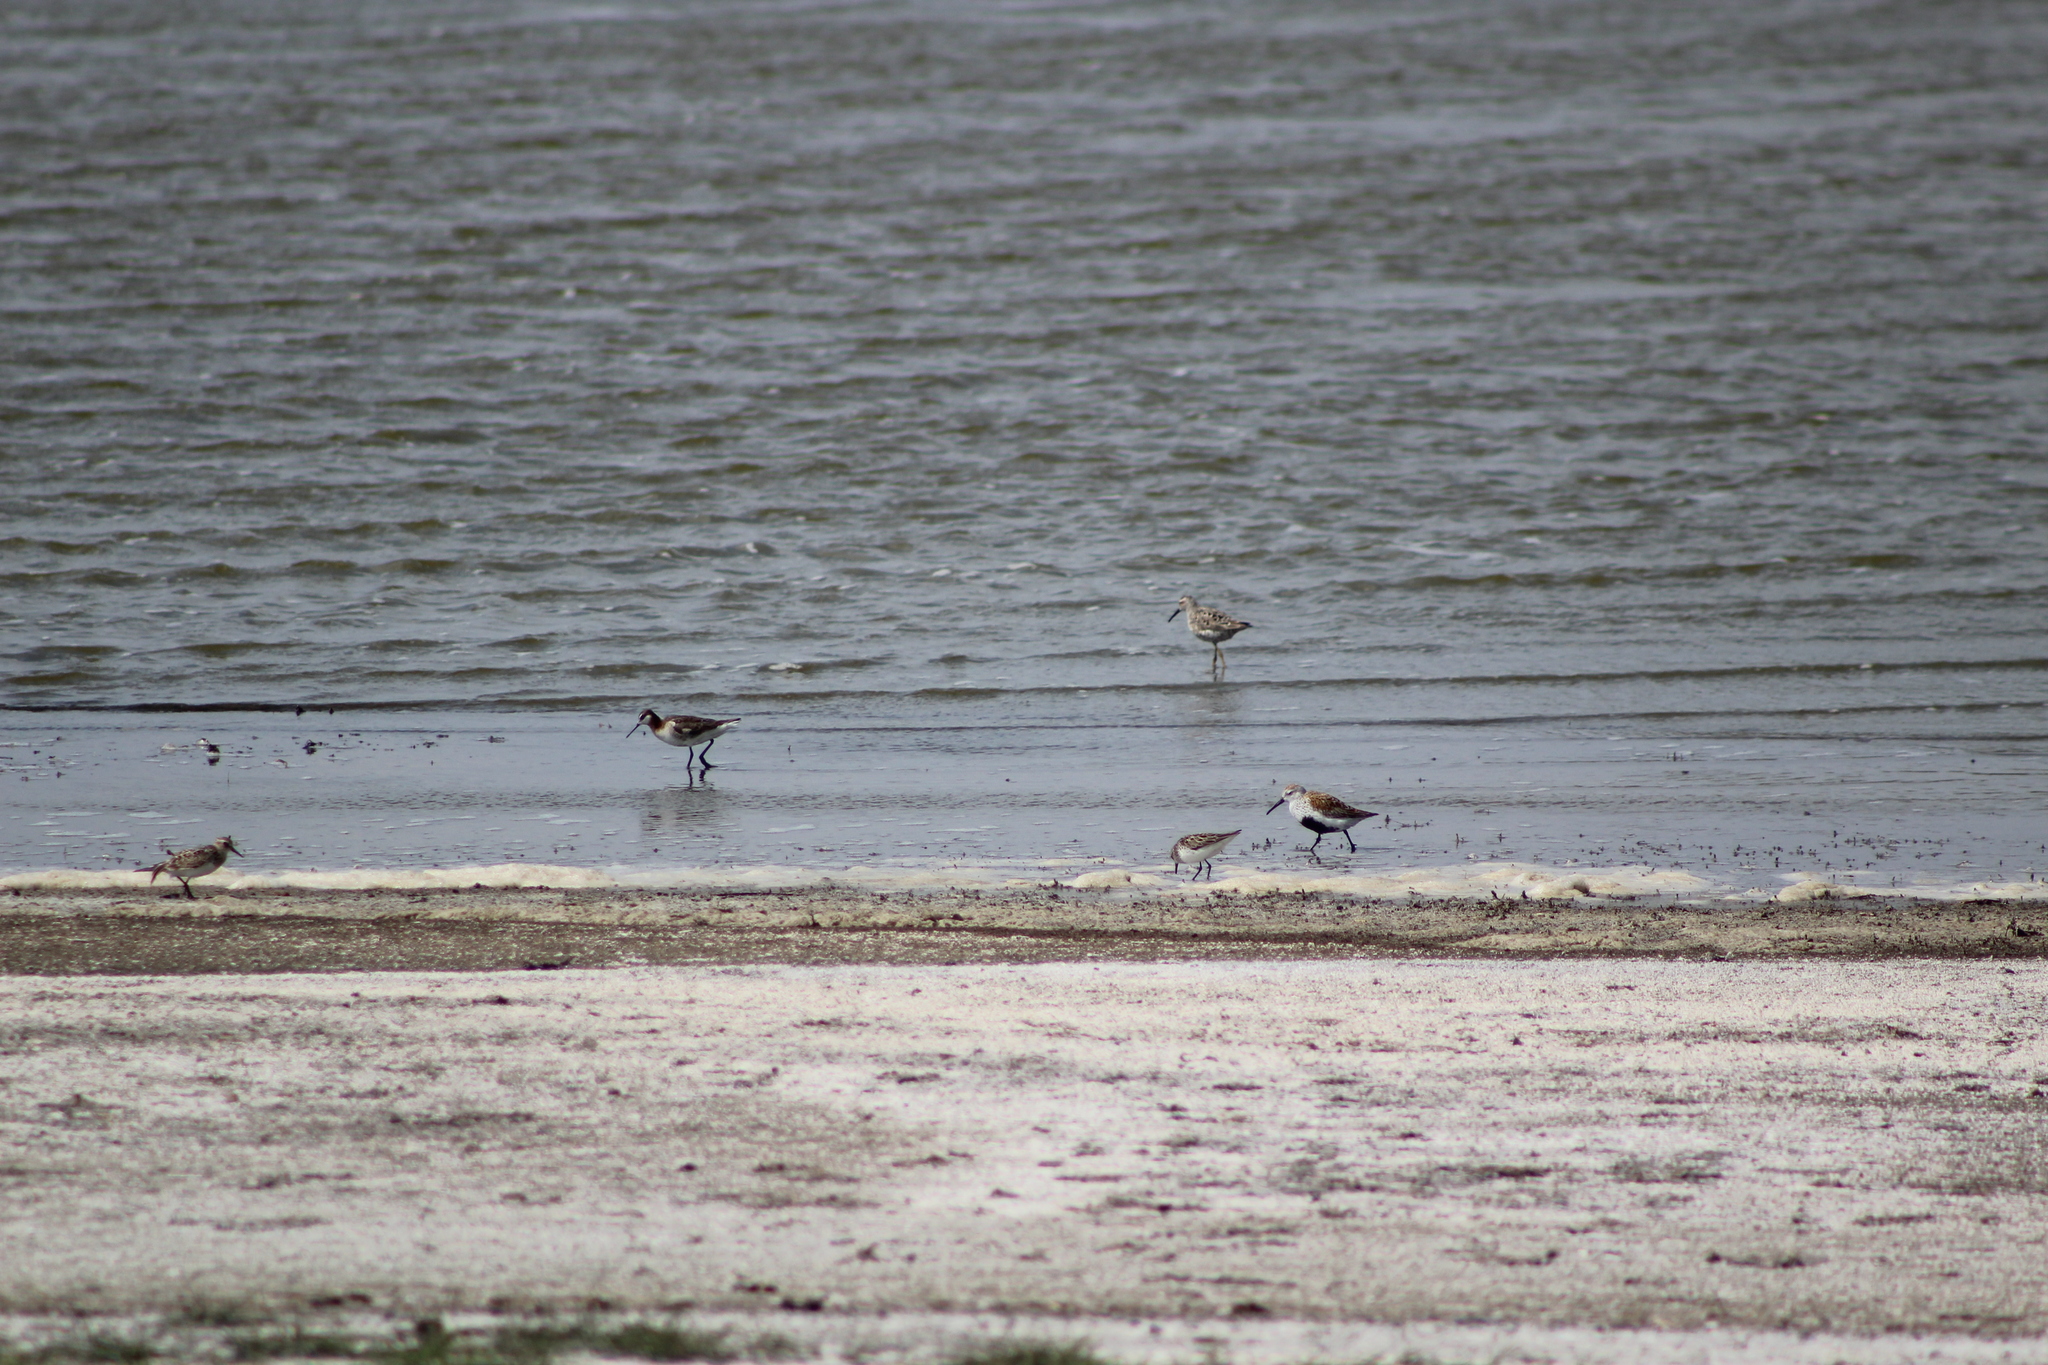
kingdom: Animalia
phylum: Chordata
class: Aves
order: Charadriiformes
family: Scolopacidae
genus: Calidris
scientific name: Calidris alpina
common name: Dunlin
